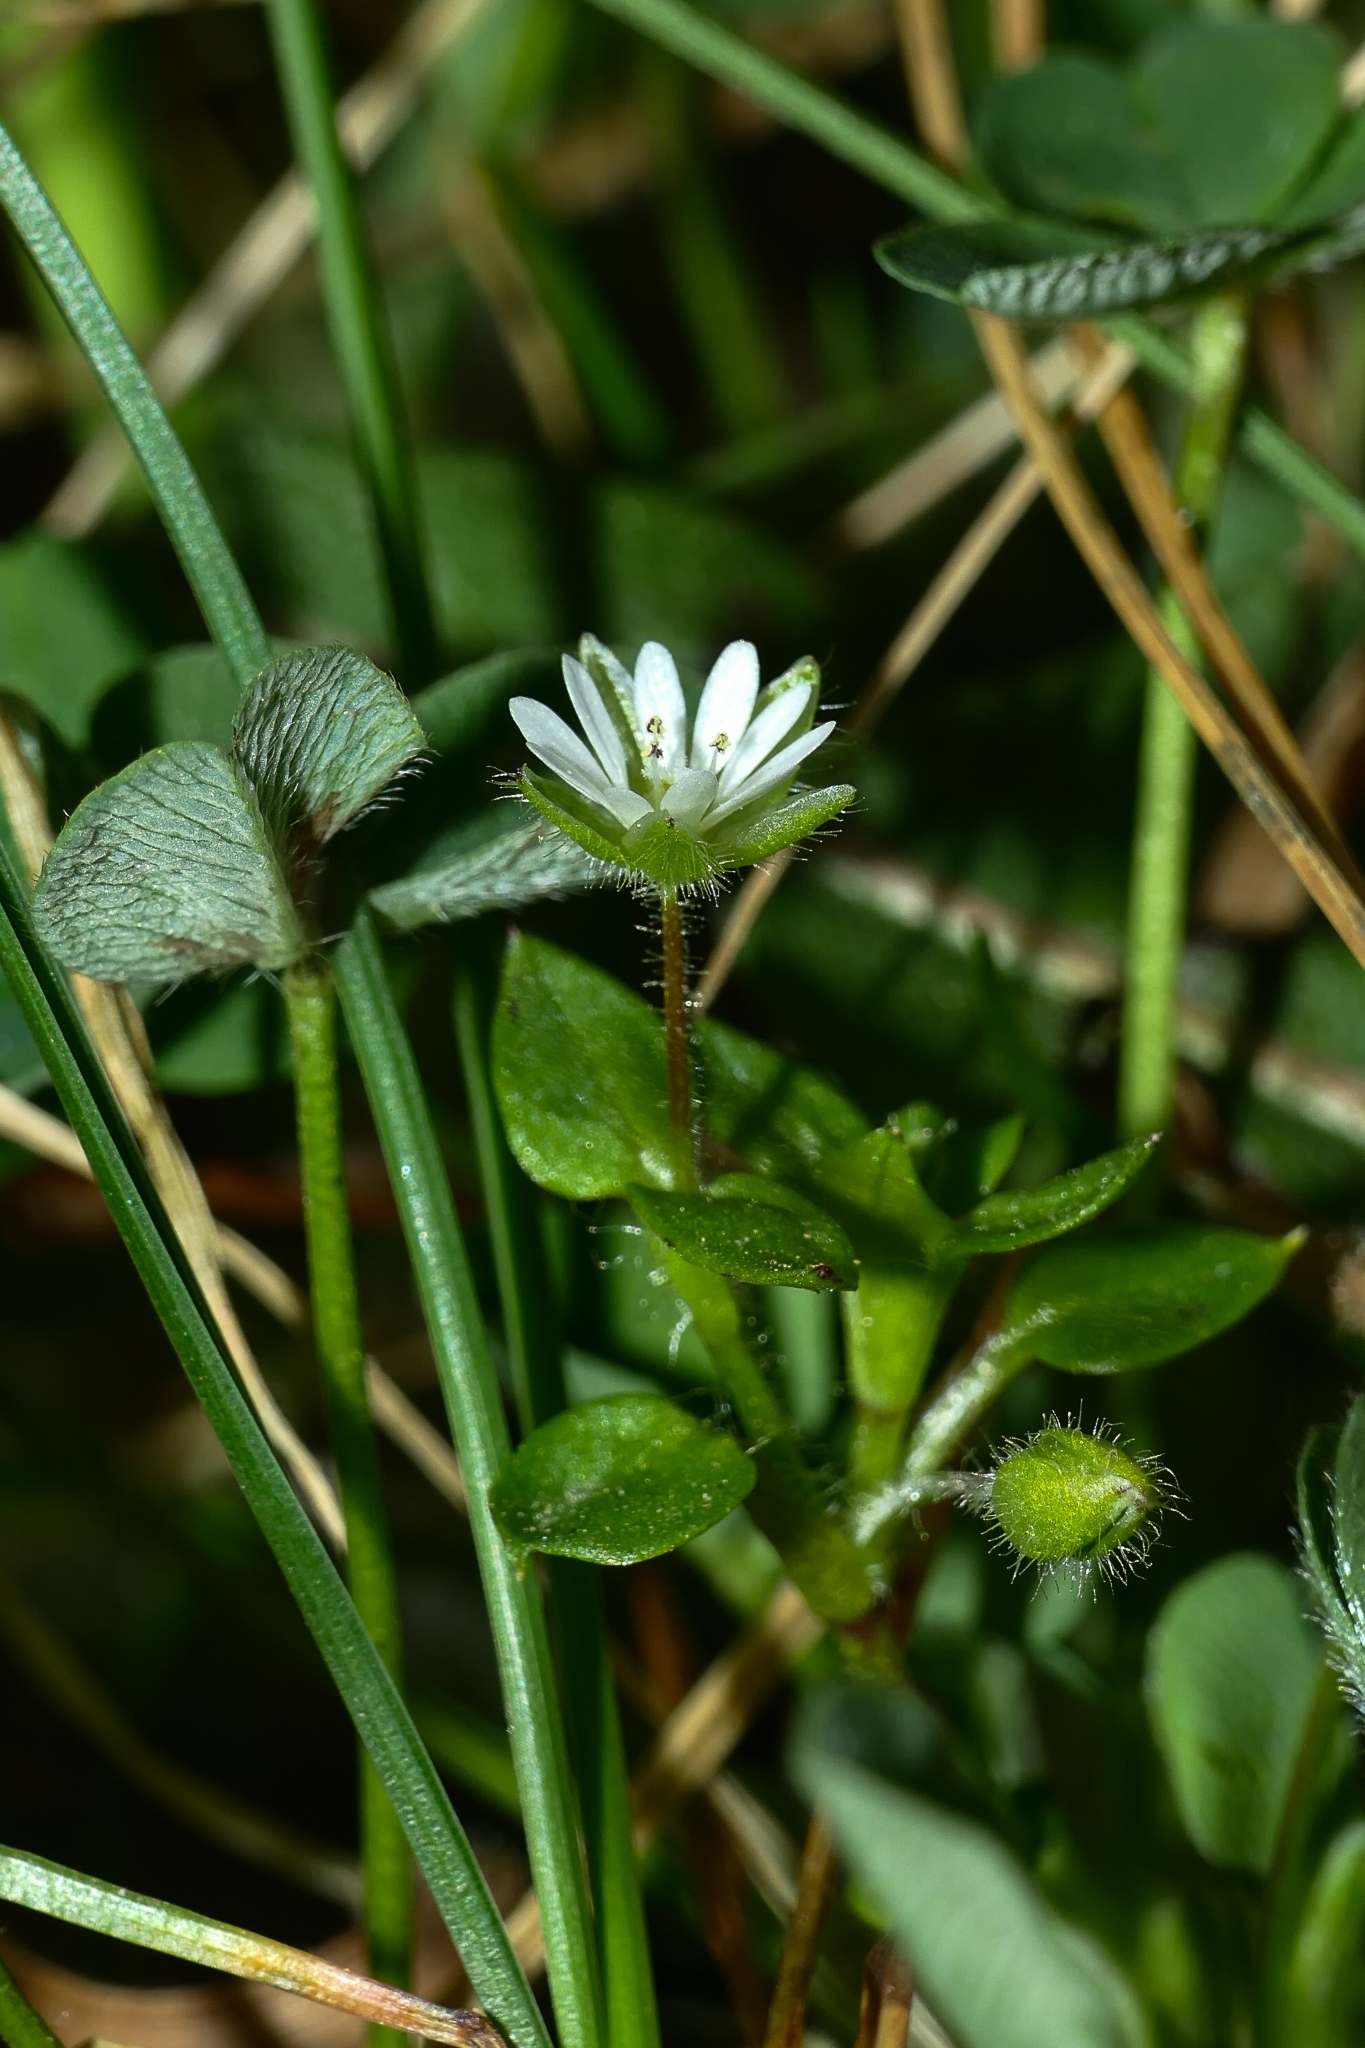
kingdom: Plantae
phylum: Tracheophyta
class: Magnoliopsida
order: Caryophyllales
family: Caryophyllaceae
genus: Stellaria
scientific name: Stellaria
